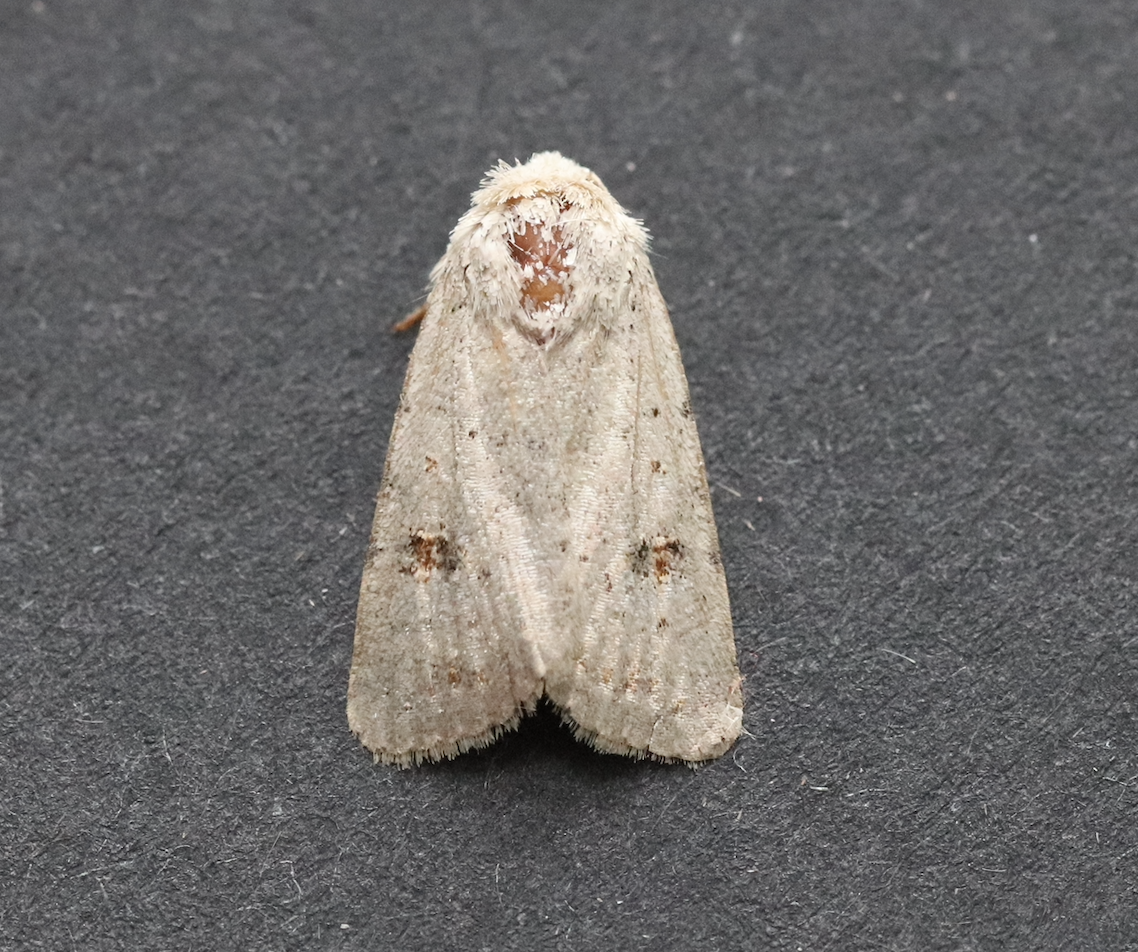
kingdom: Animalia
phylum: Arthropoda
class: Insecta
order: Lepidoptera
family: Noctuidae
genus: Caradrina
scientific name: Caradrina kadenii
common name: Clancy's rustic
